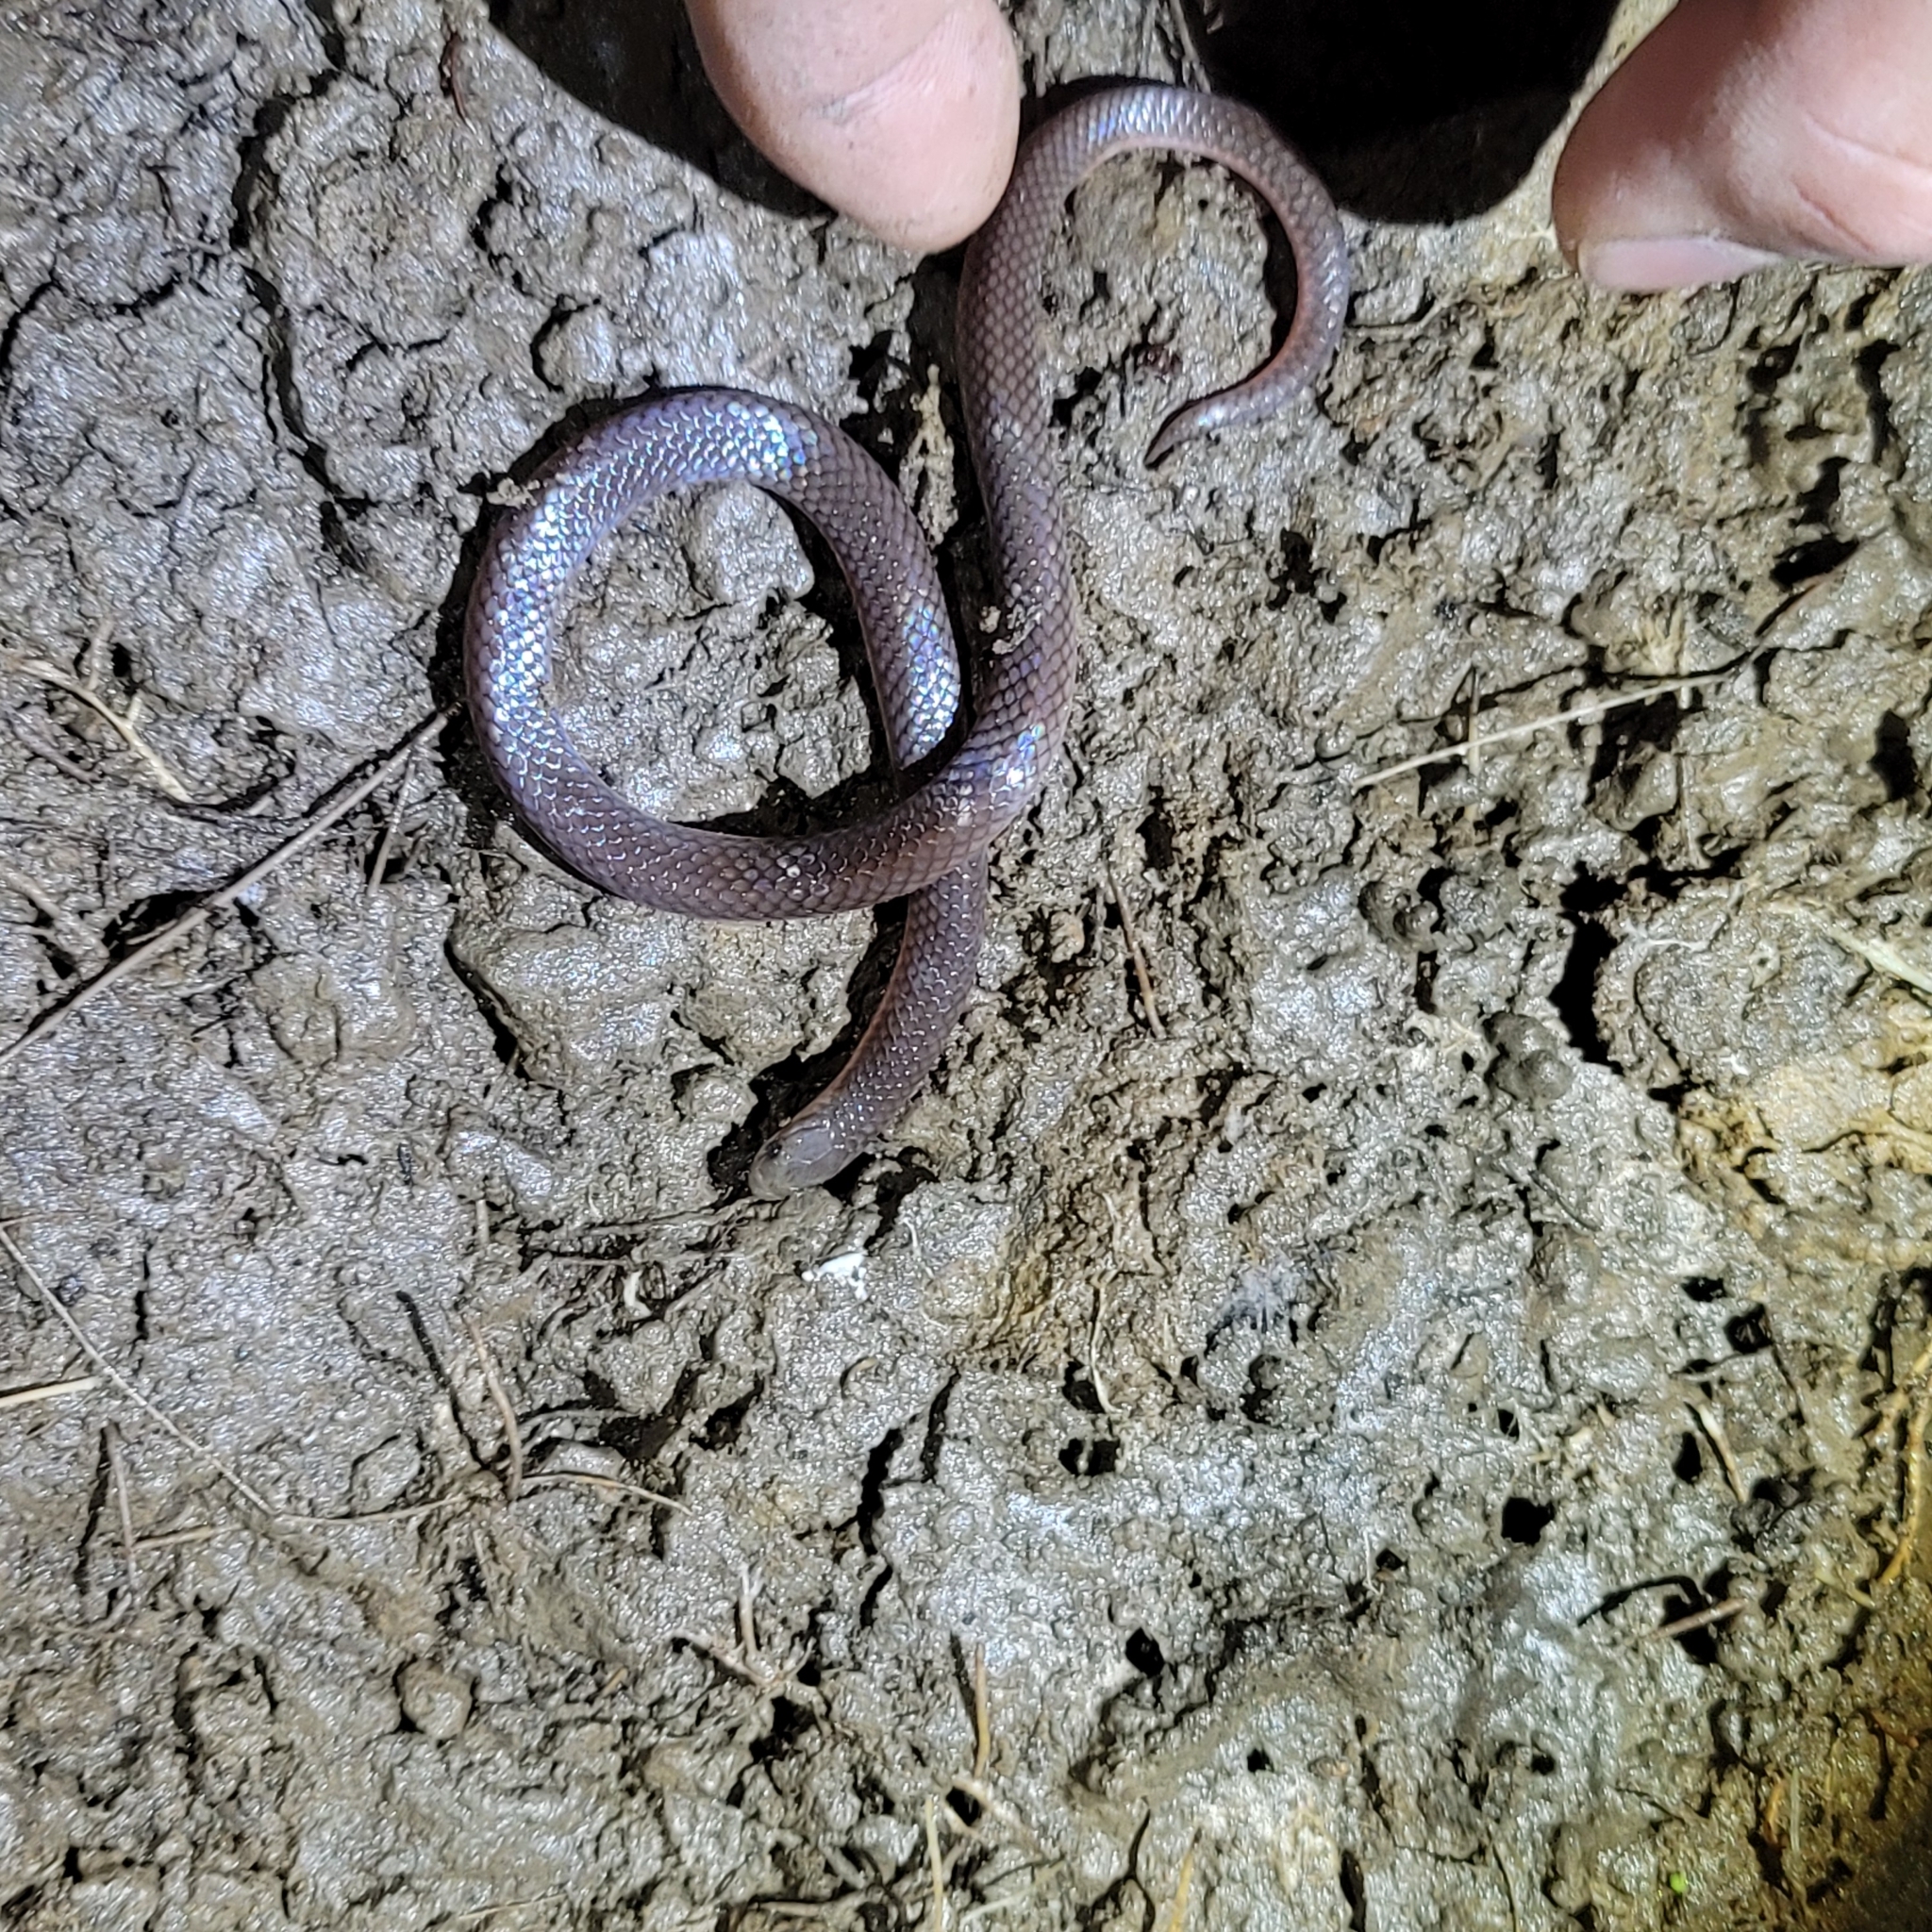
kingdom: Animalia
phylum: Chordata
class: Squamata
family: Colubridae
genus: Carphophis
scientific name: Carphophis amoenus
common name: Eastern worm snake
